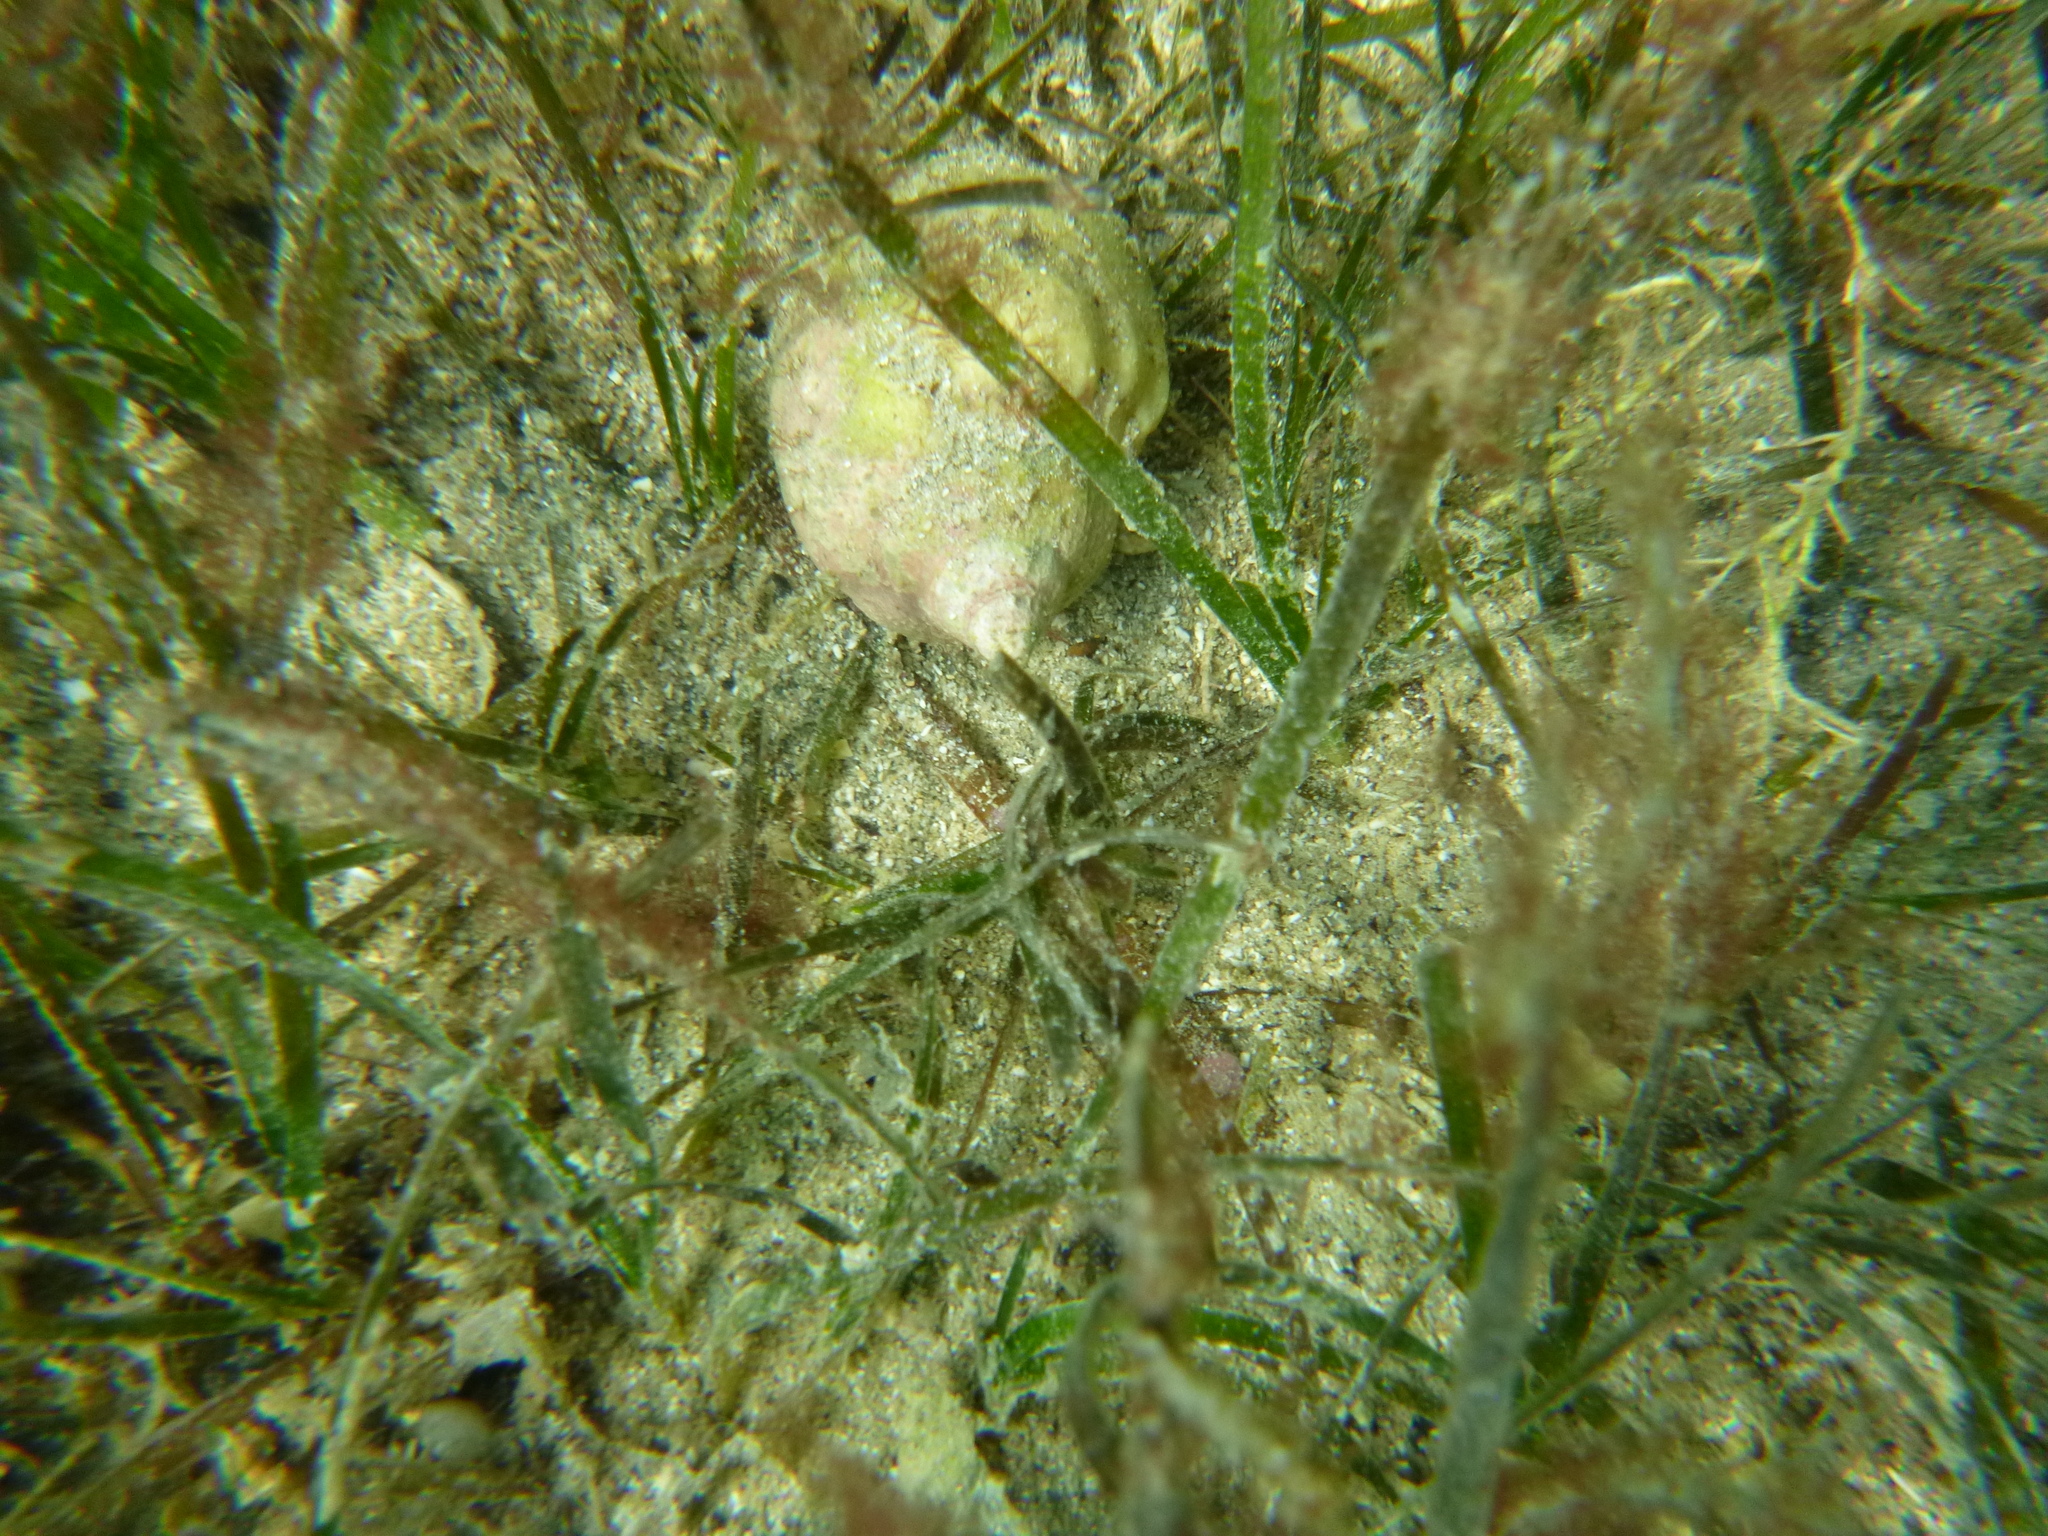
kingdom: Animalia
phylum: Mollusca
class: Gastropoda
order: Neogastropoda
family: Cominellidae
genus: Cominella
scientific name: Cominella adspersa
